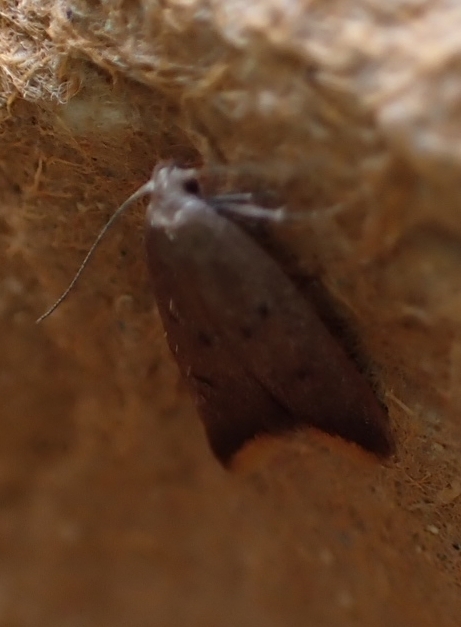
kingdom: Animalia
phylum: Arthropoda
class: Insecta
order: Lepidoptera
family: Oecophoridae
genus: Tachystola
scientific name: Tachystola acroxantha
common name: Ruddy streak
